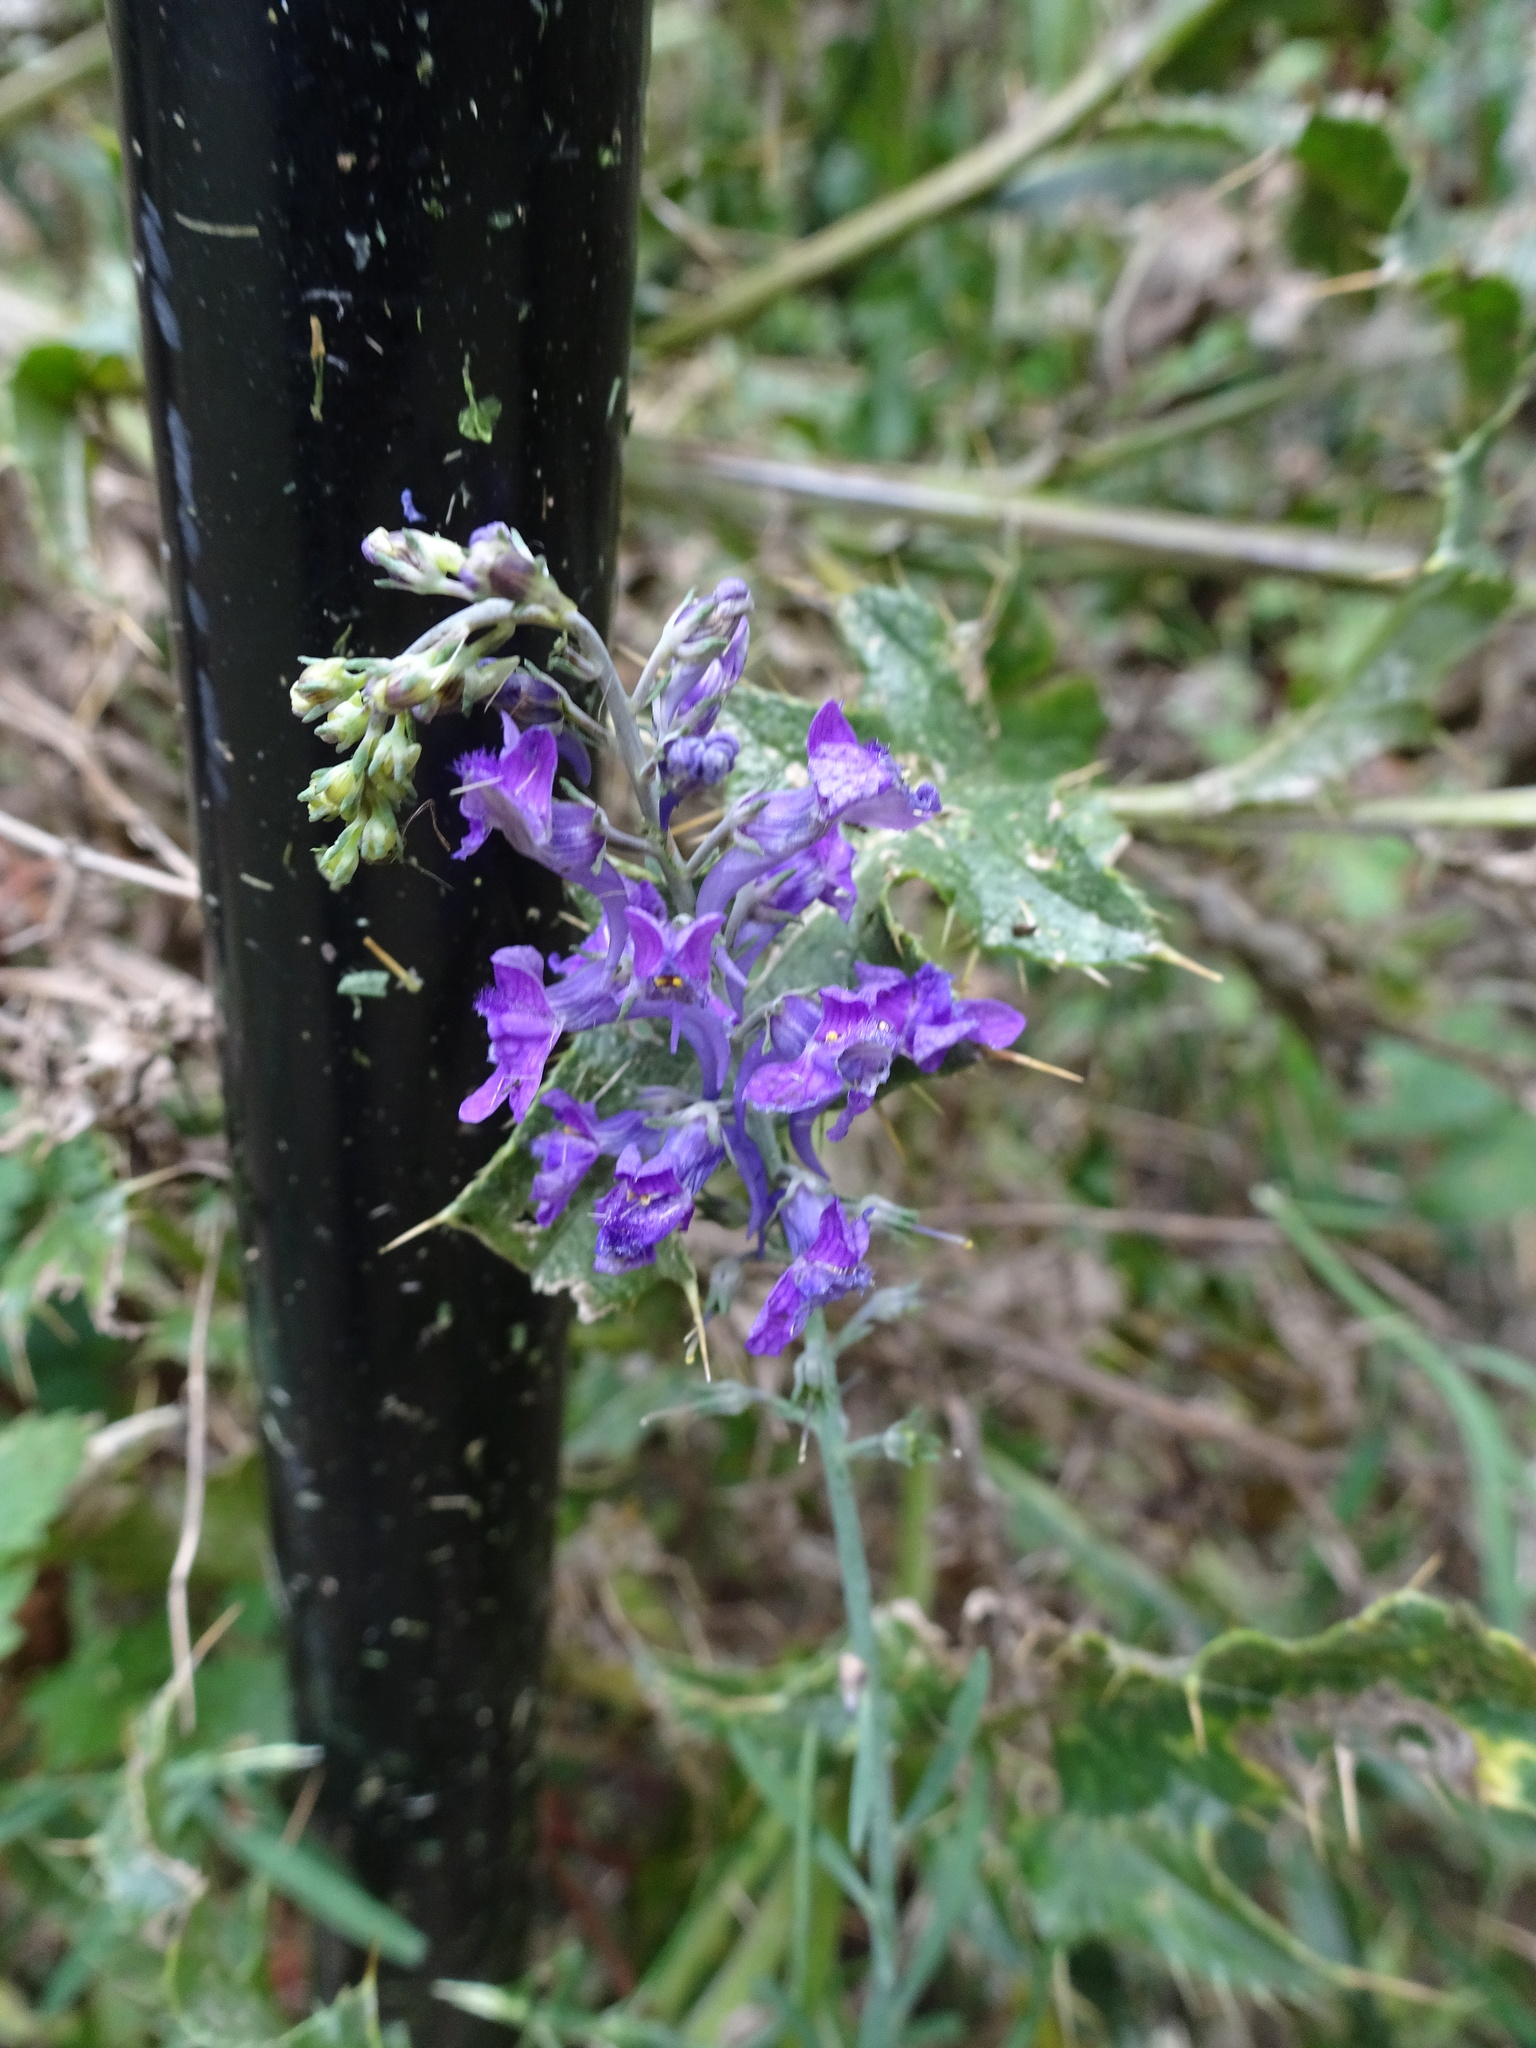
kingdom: Plantae
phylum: Tracheophyta
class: Magnoliopsida
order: Lamiales
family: Plantaginaceae
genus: Linaria
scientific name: Linaria purpurea
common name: Purple toadflax
